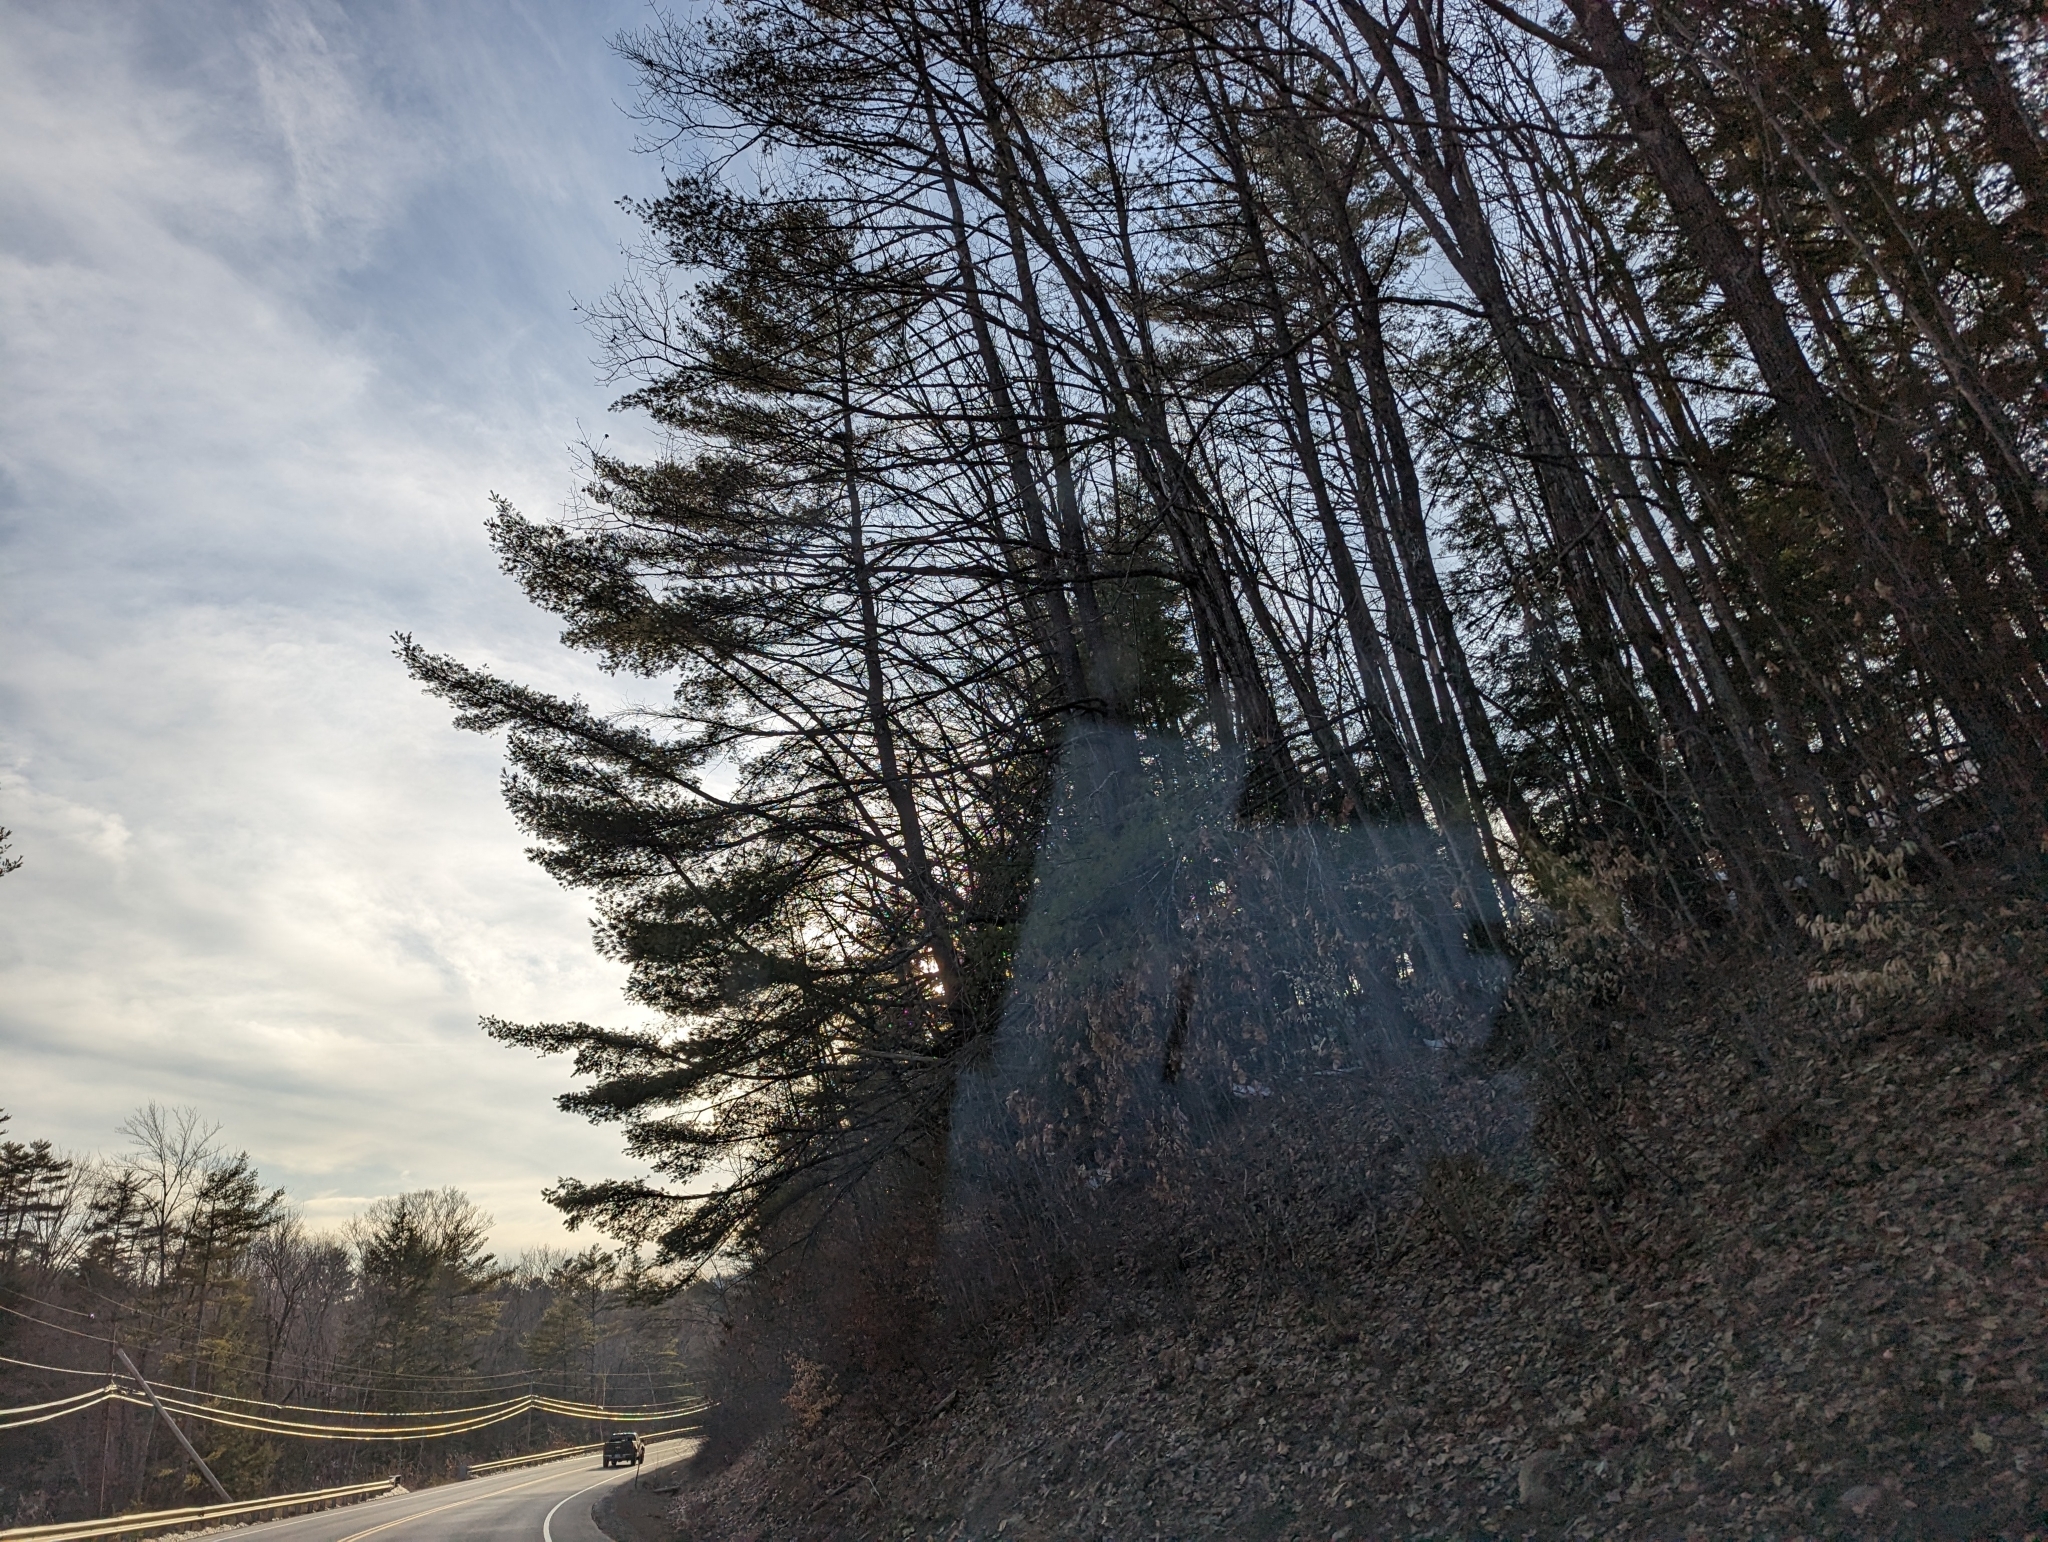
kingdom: Plantae
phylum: Tracheophyta
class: Pinopsida
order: Pinales
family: Pinaceae
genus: Pinus
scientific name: Pinus strobus
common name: Weymouth pine
